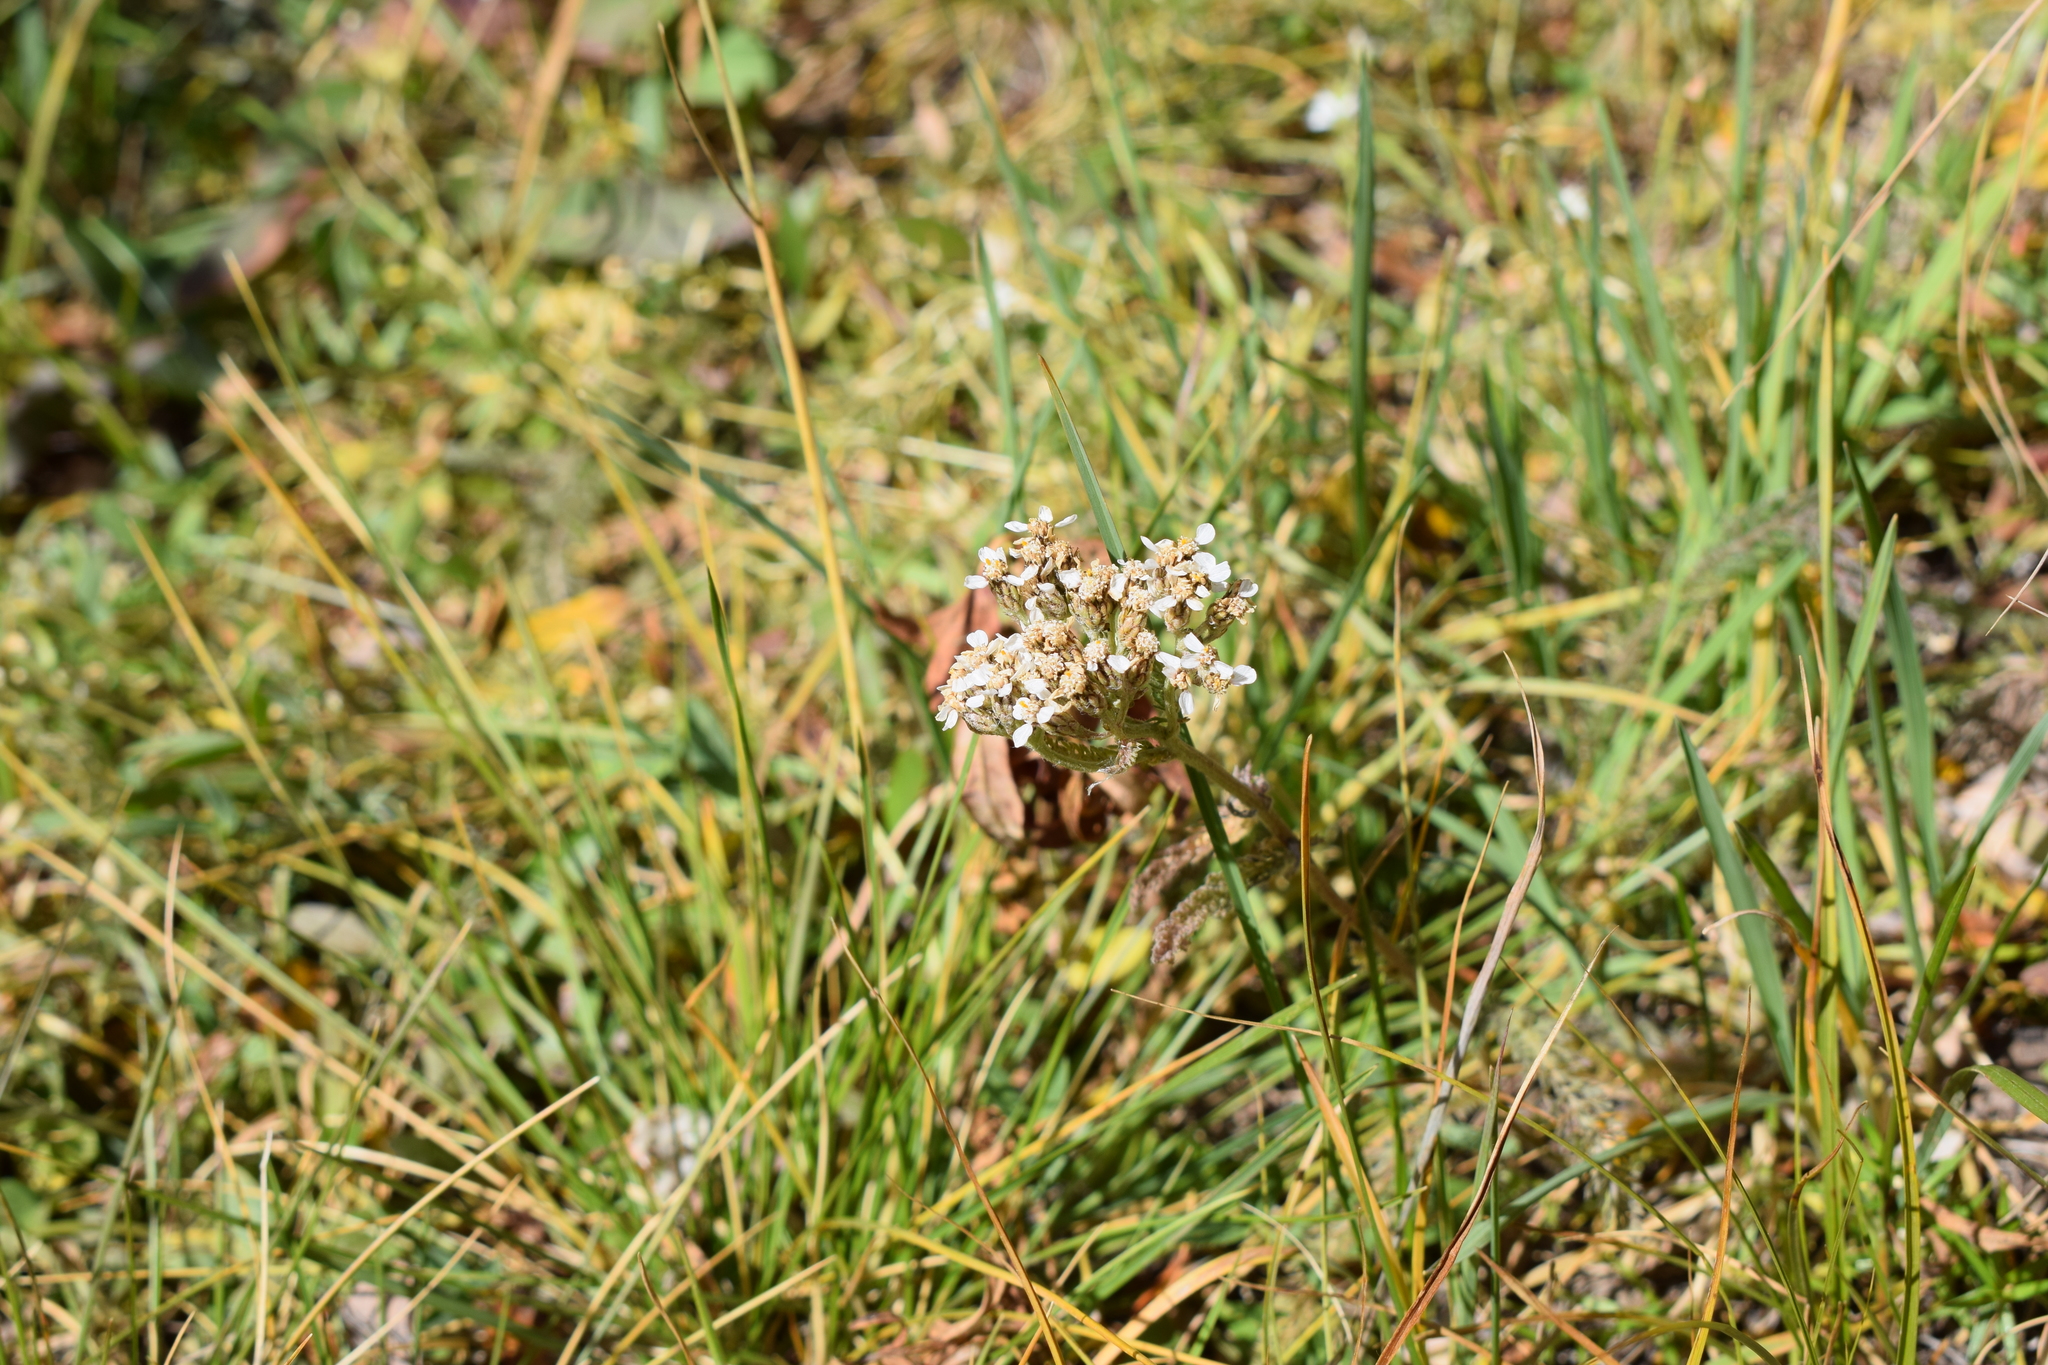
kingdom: Plantae
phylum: Tracheophyta
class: Magnoliopsida
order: Asterales
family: Asteraceae
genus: Achillea
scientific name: Achillea millefolium
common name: Yarrow
